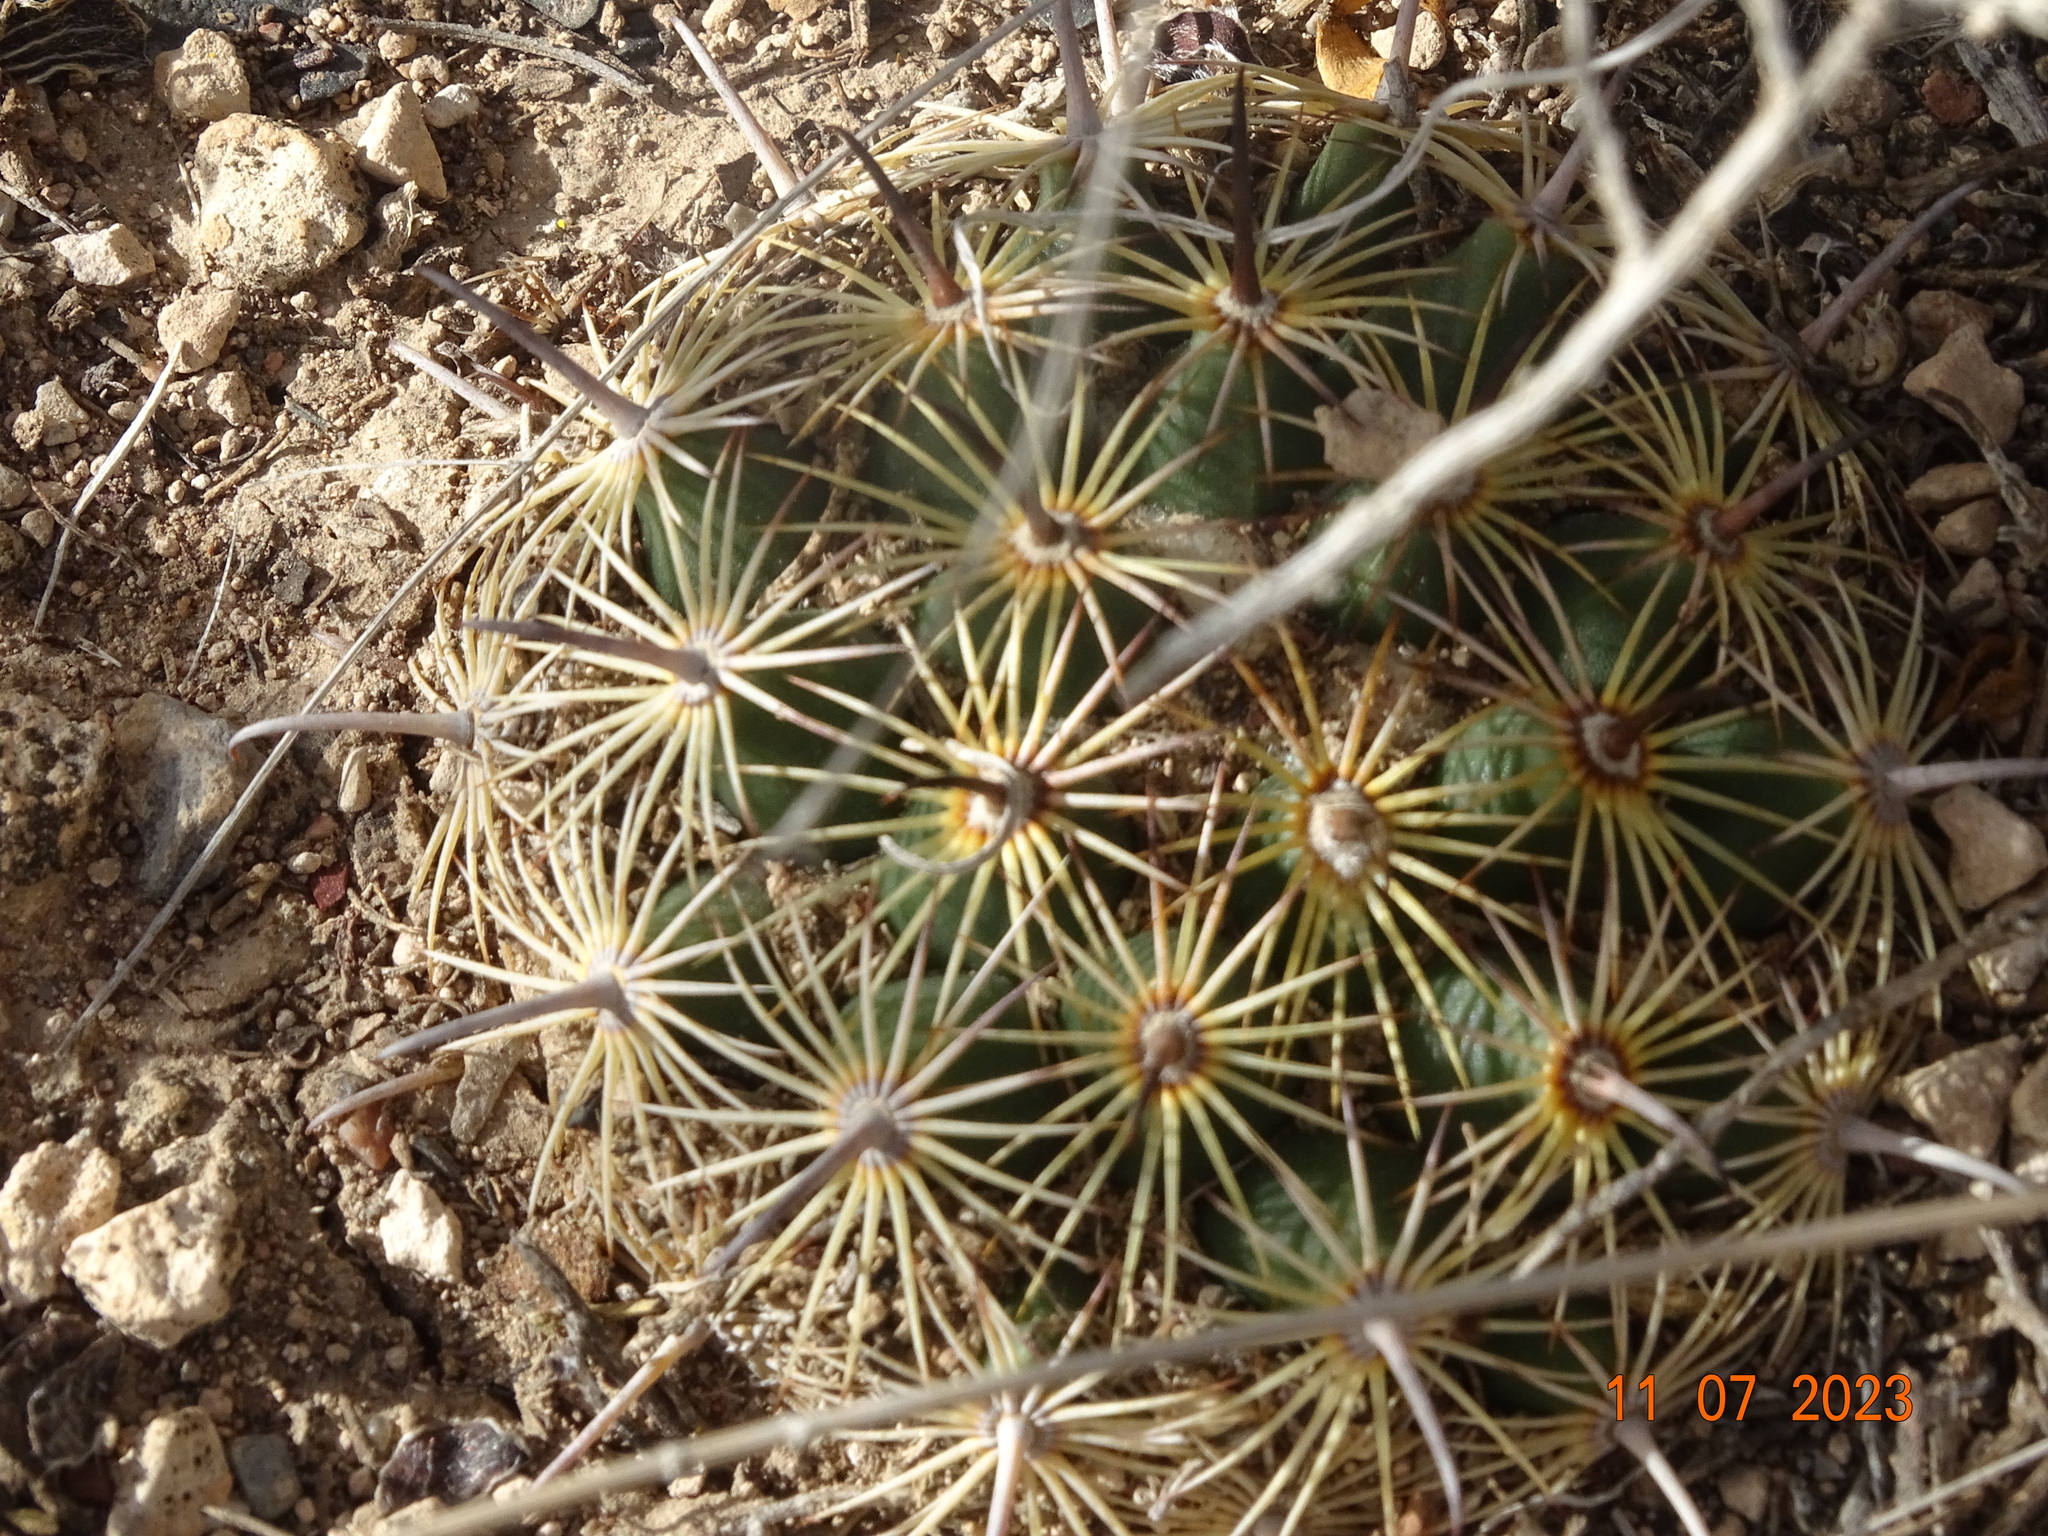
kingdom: Plantae
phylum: Tracheophyta
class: Magnoliopsida
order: Caryophyllales
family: Cactaceae
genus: Coryphantha
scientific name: Coryphantha delicata
